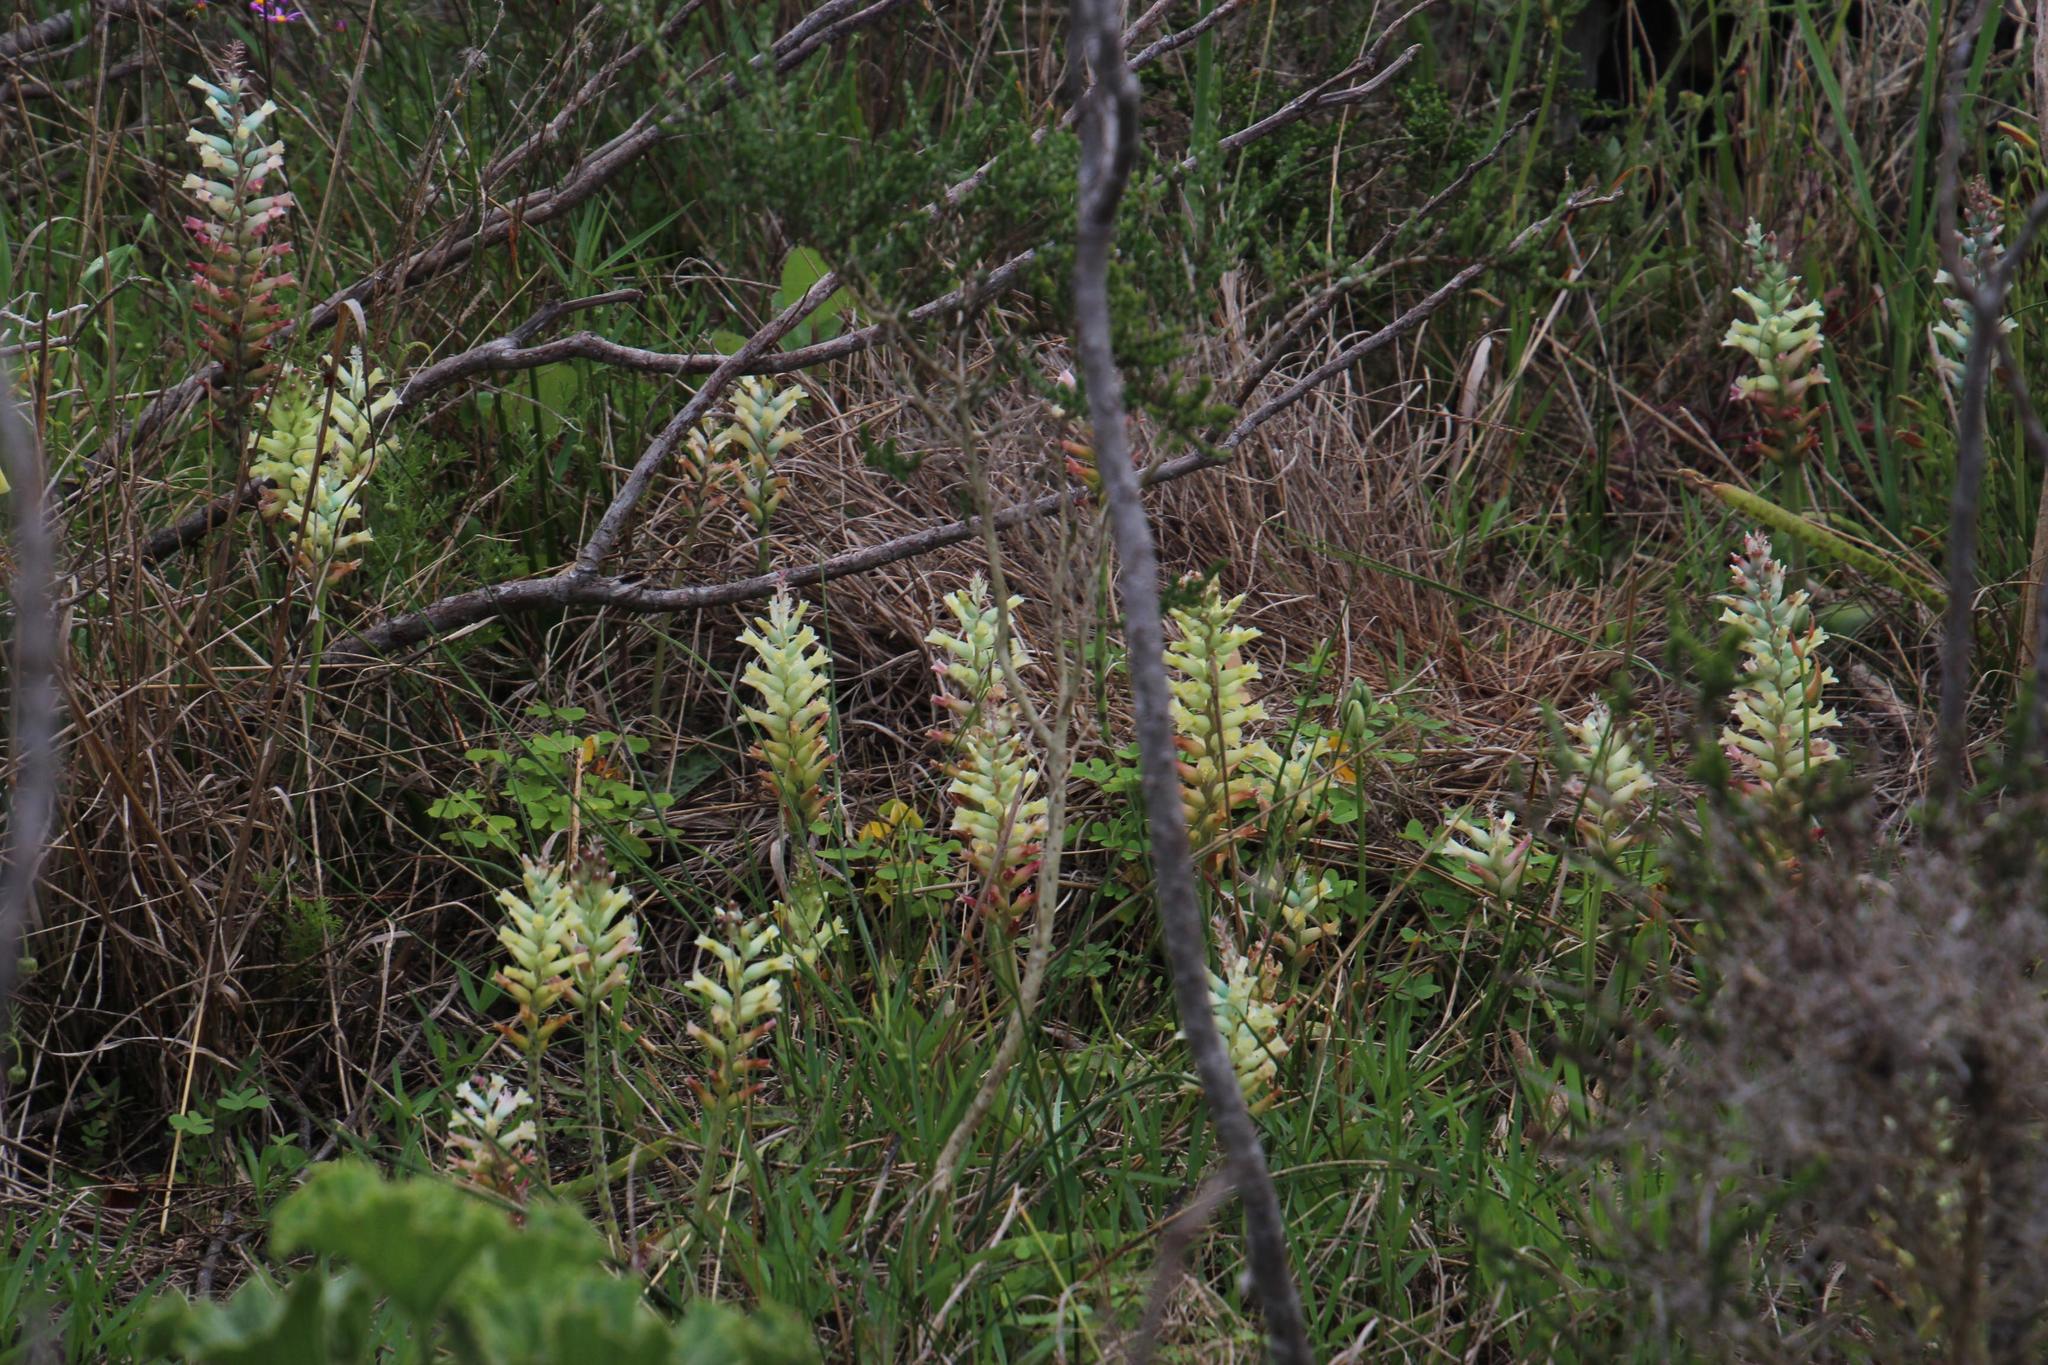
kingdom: Plantae
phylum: Tracheophyta
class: Liliopsida
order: Asparagales
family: Asparagaceae
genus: Lachenalia
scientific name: Lachenalia orchioides
